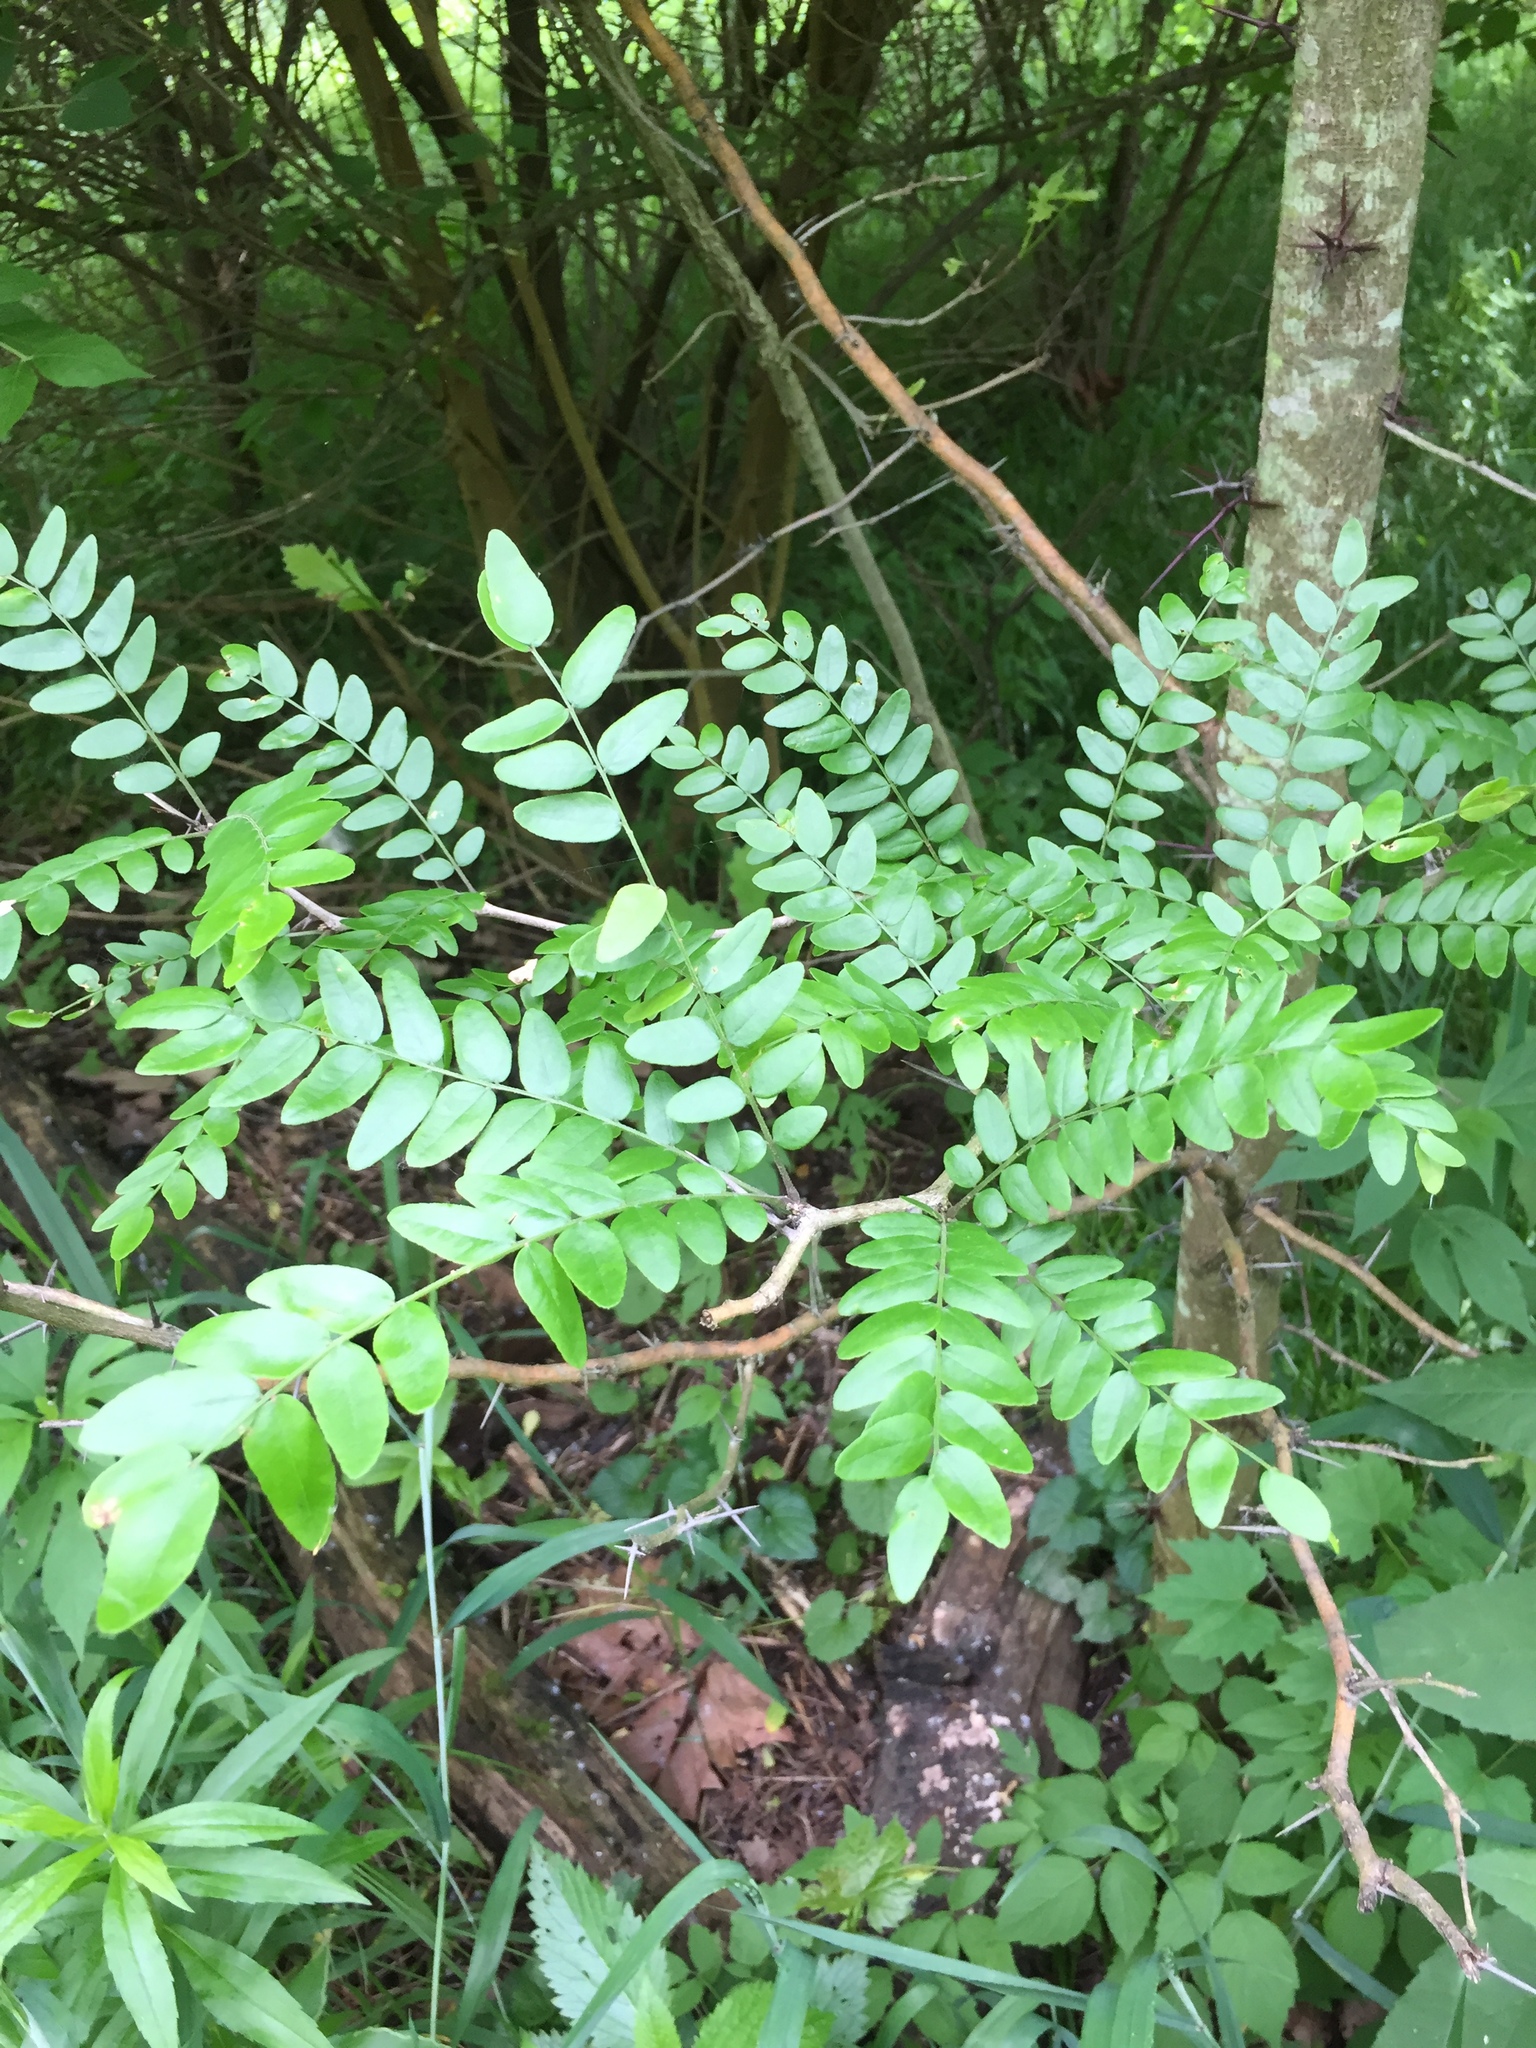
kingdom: Plantae
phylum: Tracheophyta
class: Magnoliopsida
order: Fabales
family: Fabaceae
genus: Gleditsia
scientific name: Gleditsia triacanthos
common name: Common honeylocust
